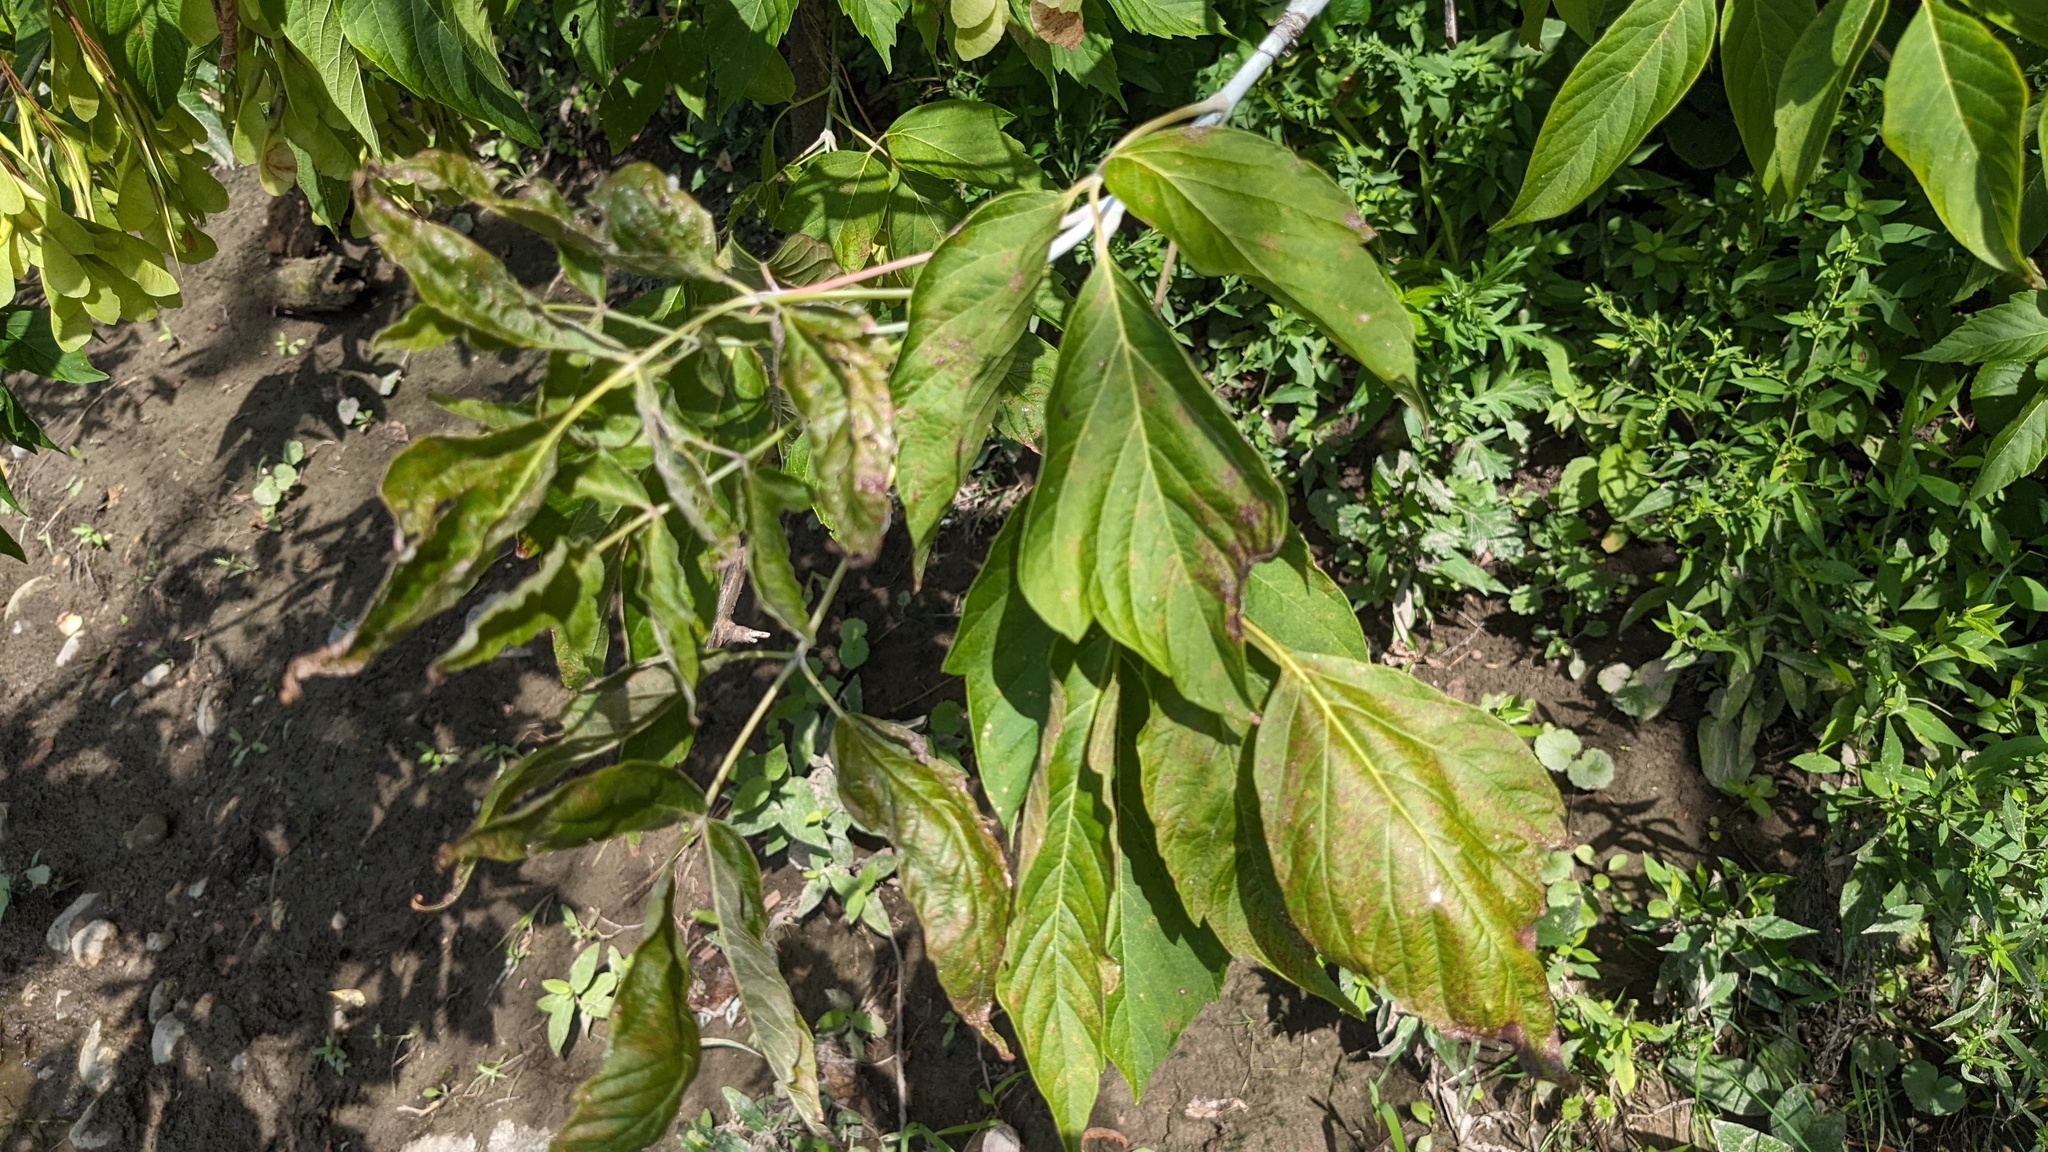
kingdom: Plantae
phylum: Tracheophyta
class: Magnoliopsida
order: Sapindales
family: Sapindaceae
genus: Acer
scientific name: Acer negundo
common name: Ashleaf maple
